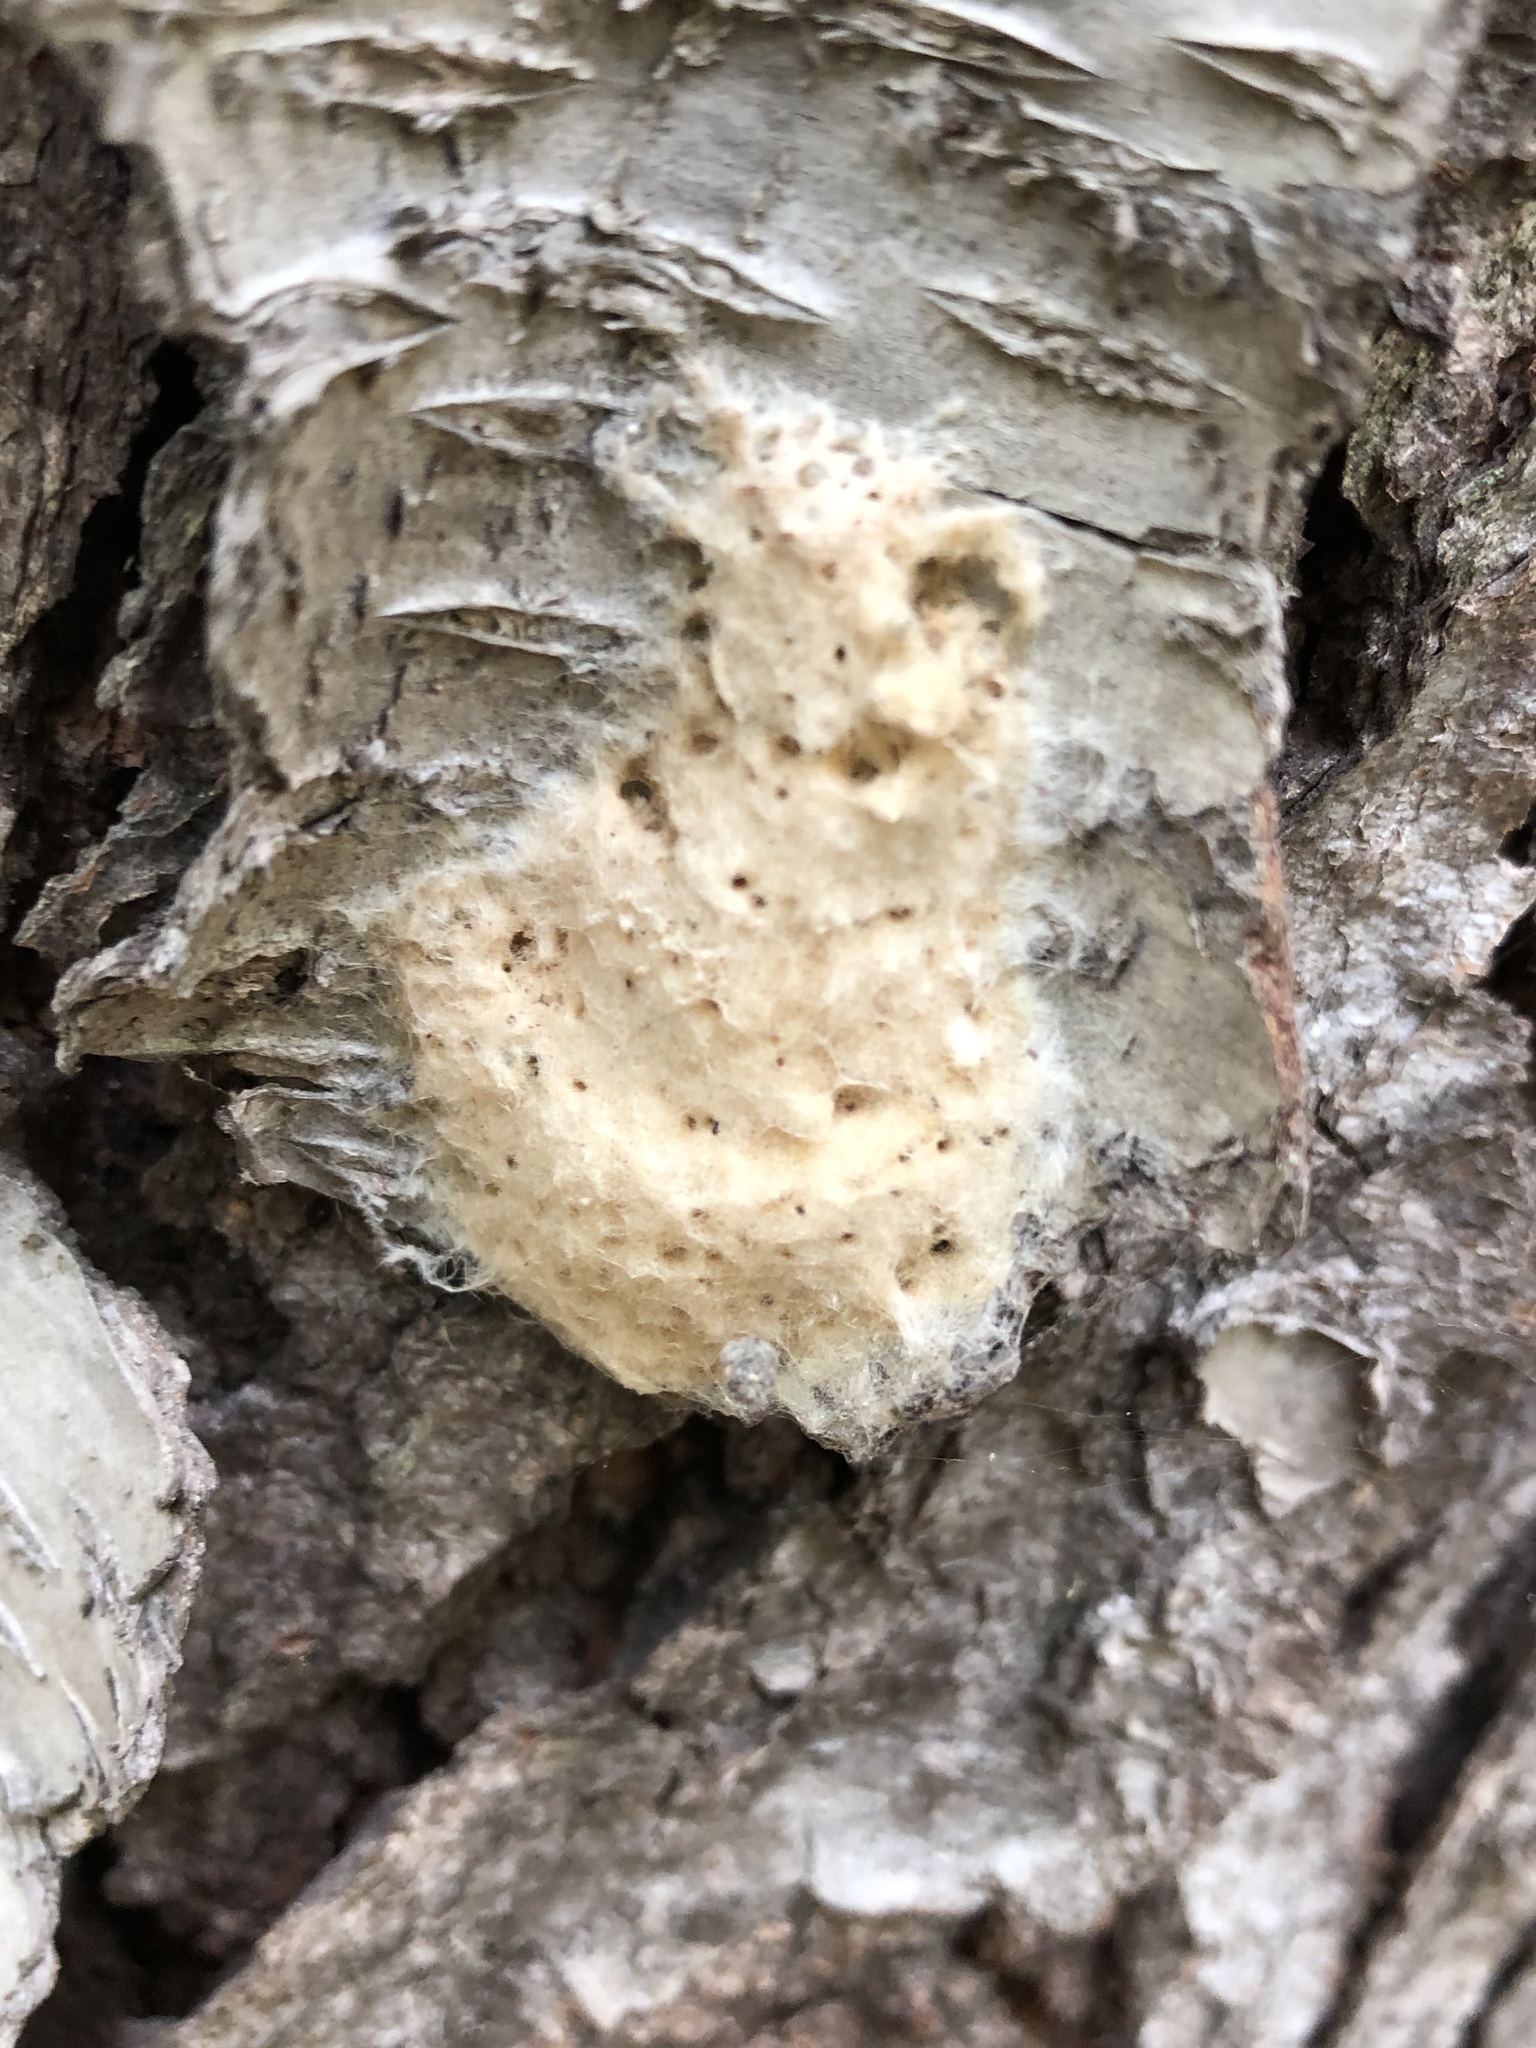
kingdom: Animalia
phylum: Arthropoda
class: Insecta
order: Lepidoptera
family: Erebidae
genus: Lymantria
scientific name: Lymantria dispar
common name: Gypsy moth
